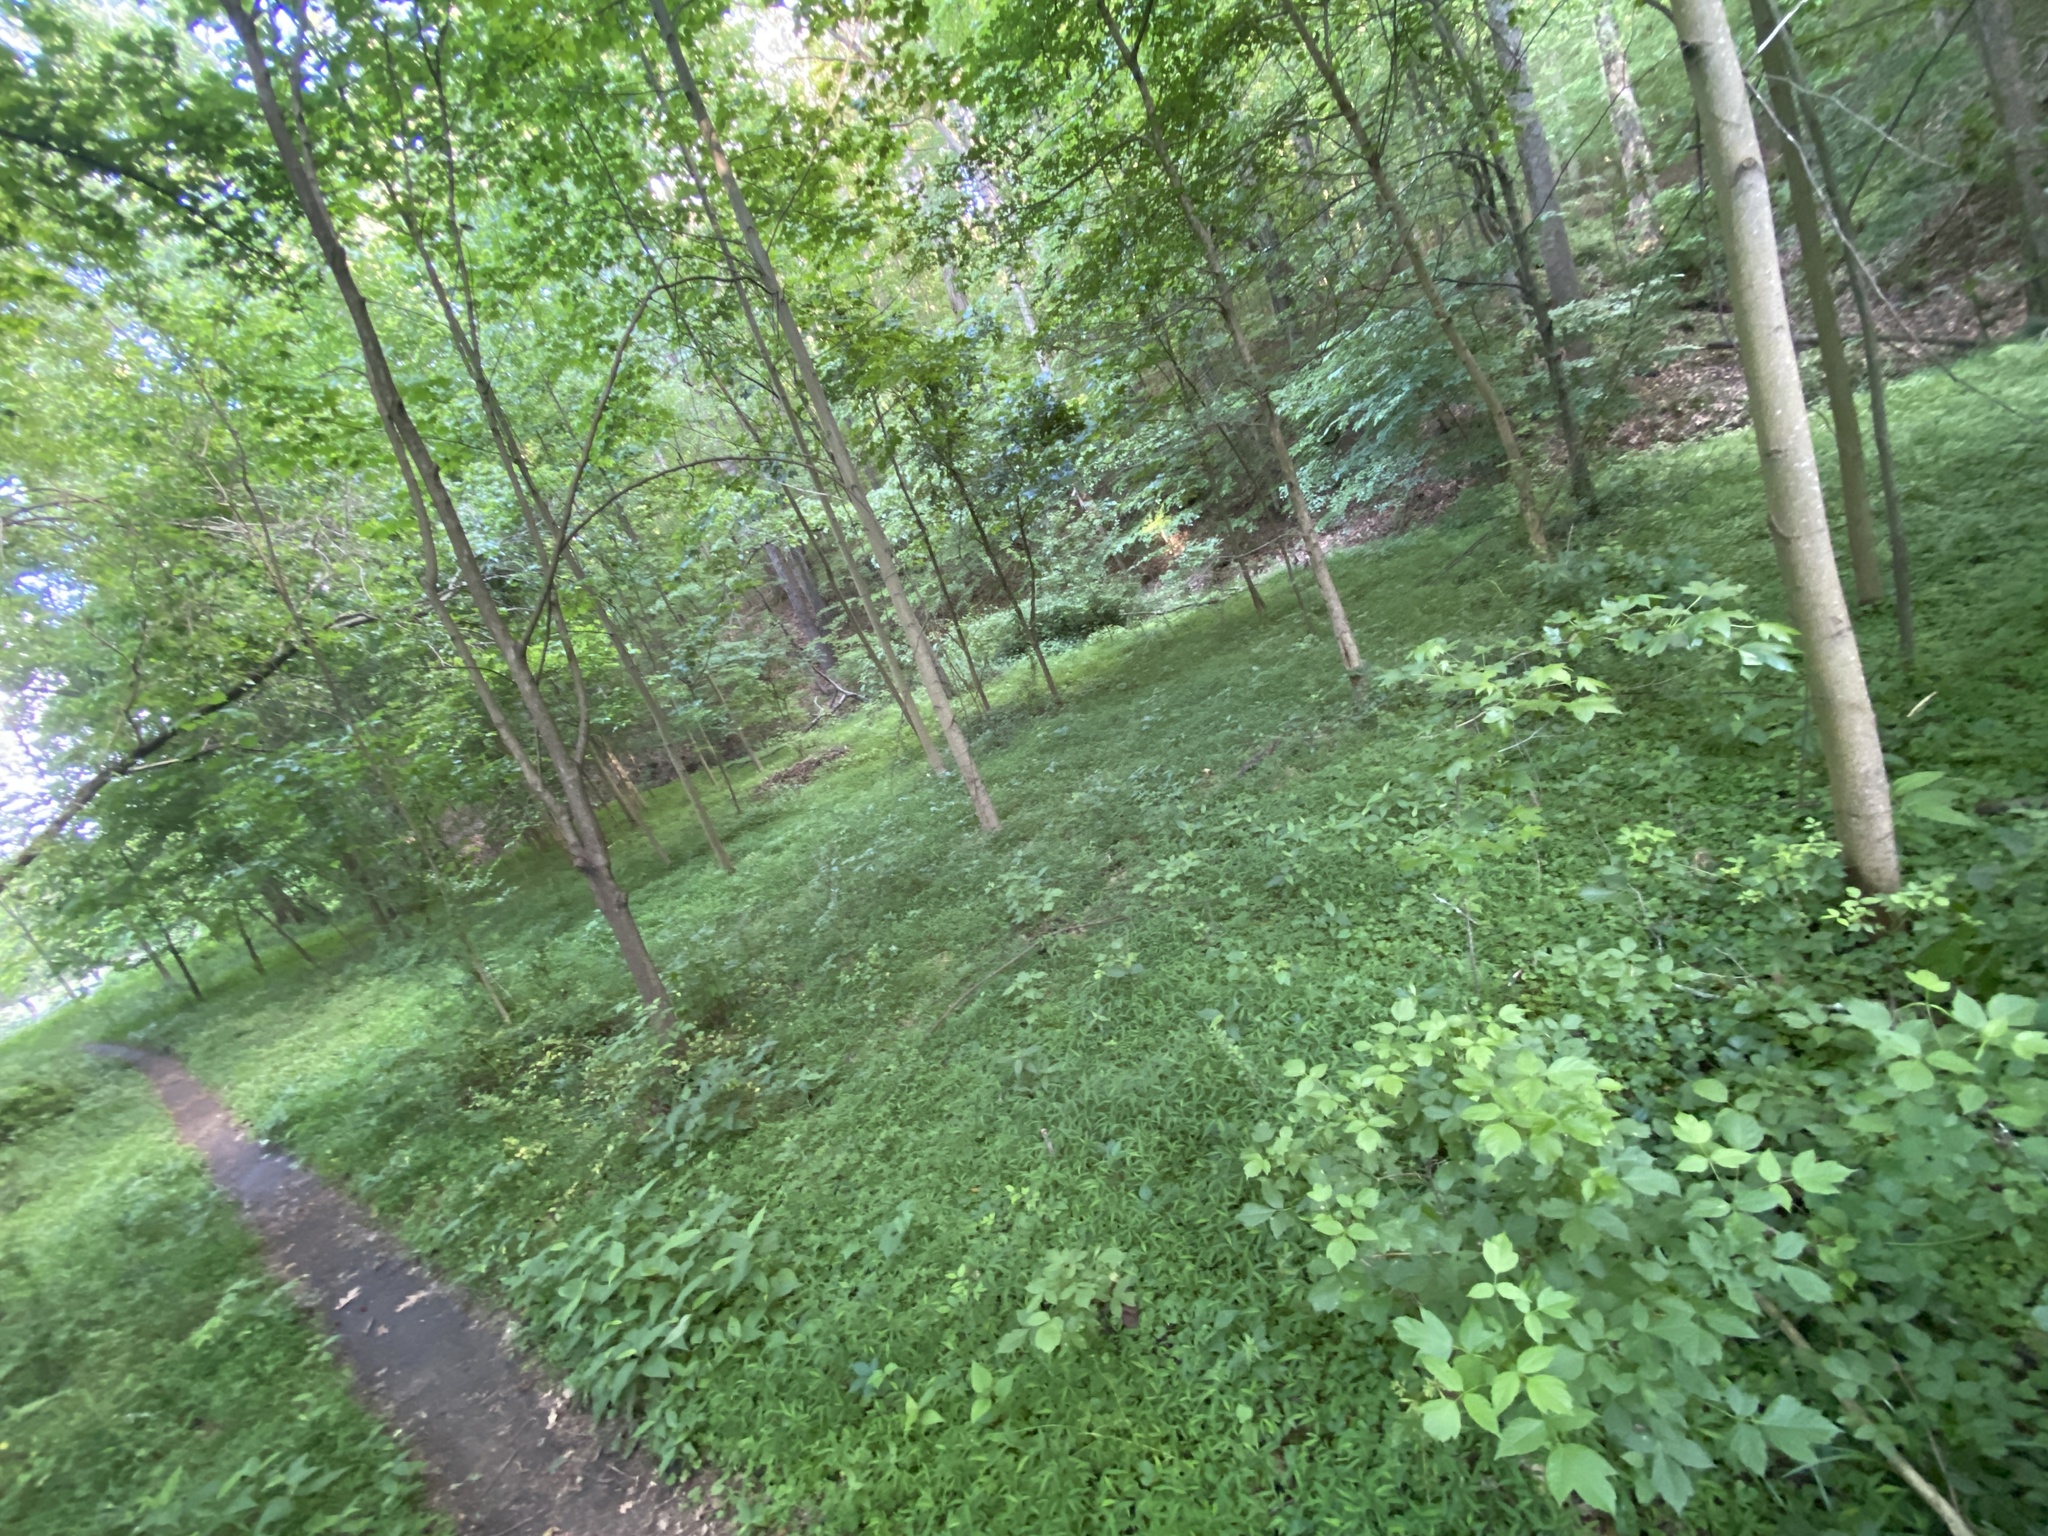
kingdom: Plantae
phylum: Tracheophyta
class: Liliopsida
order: Poales
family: Poaceae
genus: Microstegium
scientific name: Microstegium vimineum
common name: Japanese stiltgrass
